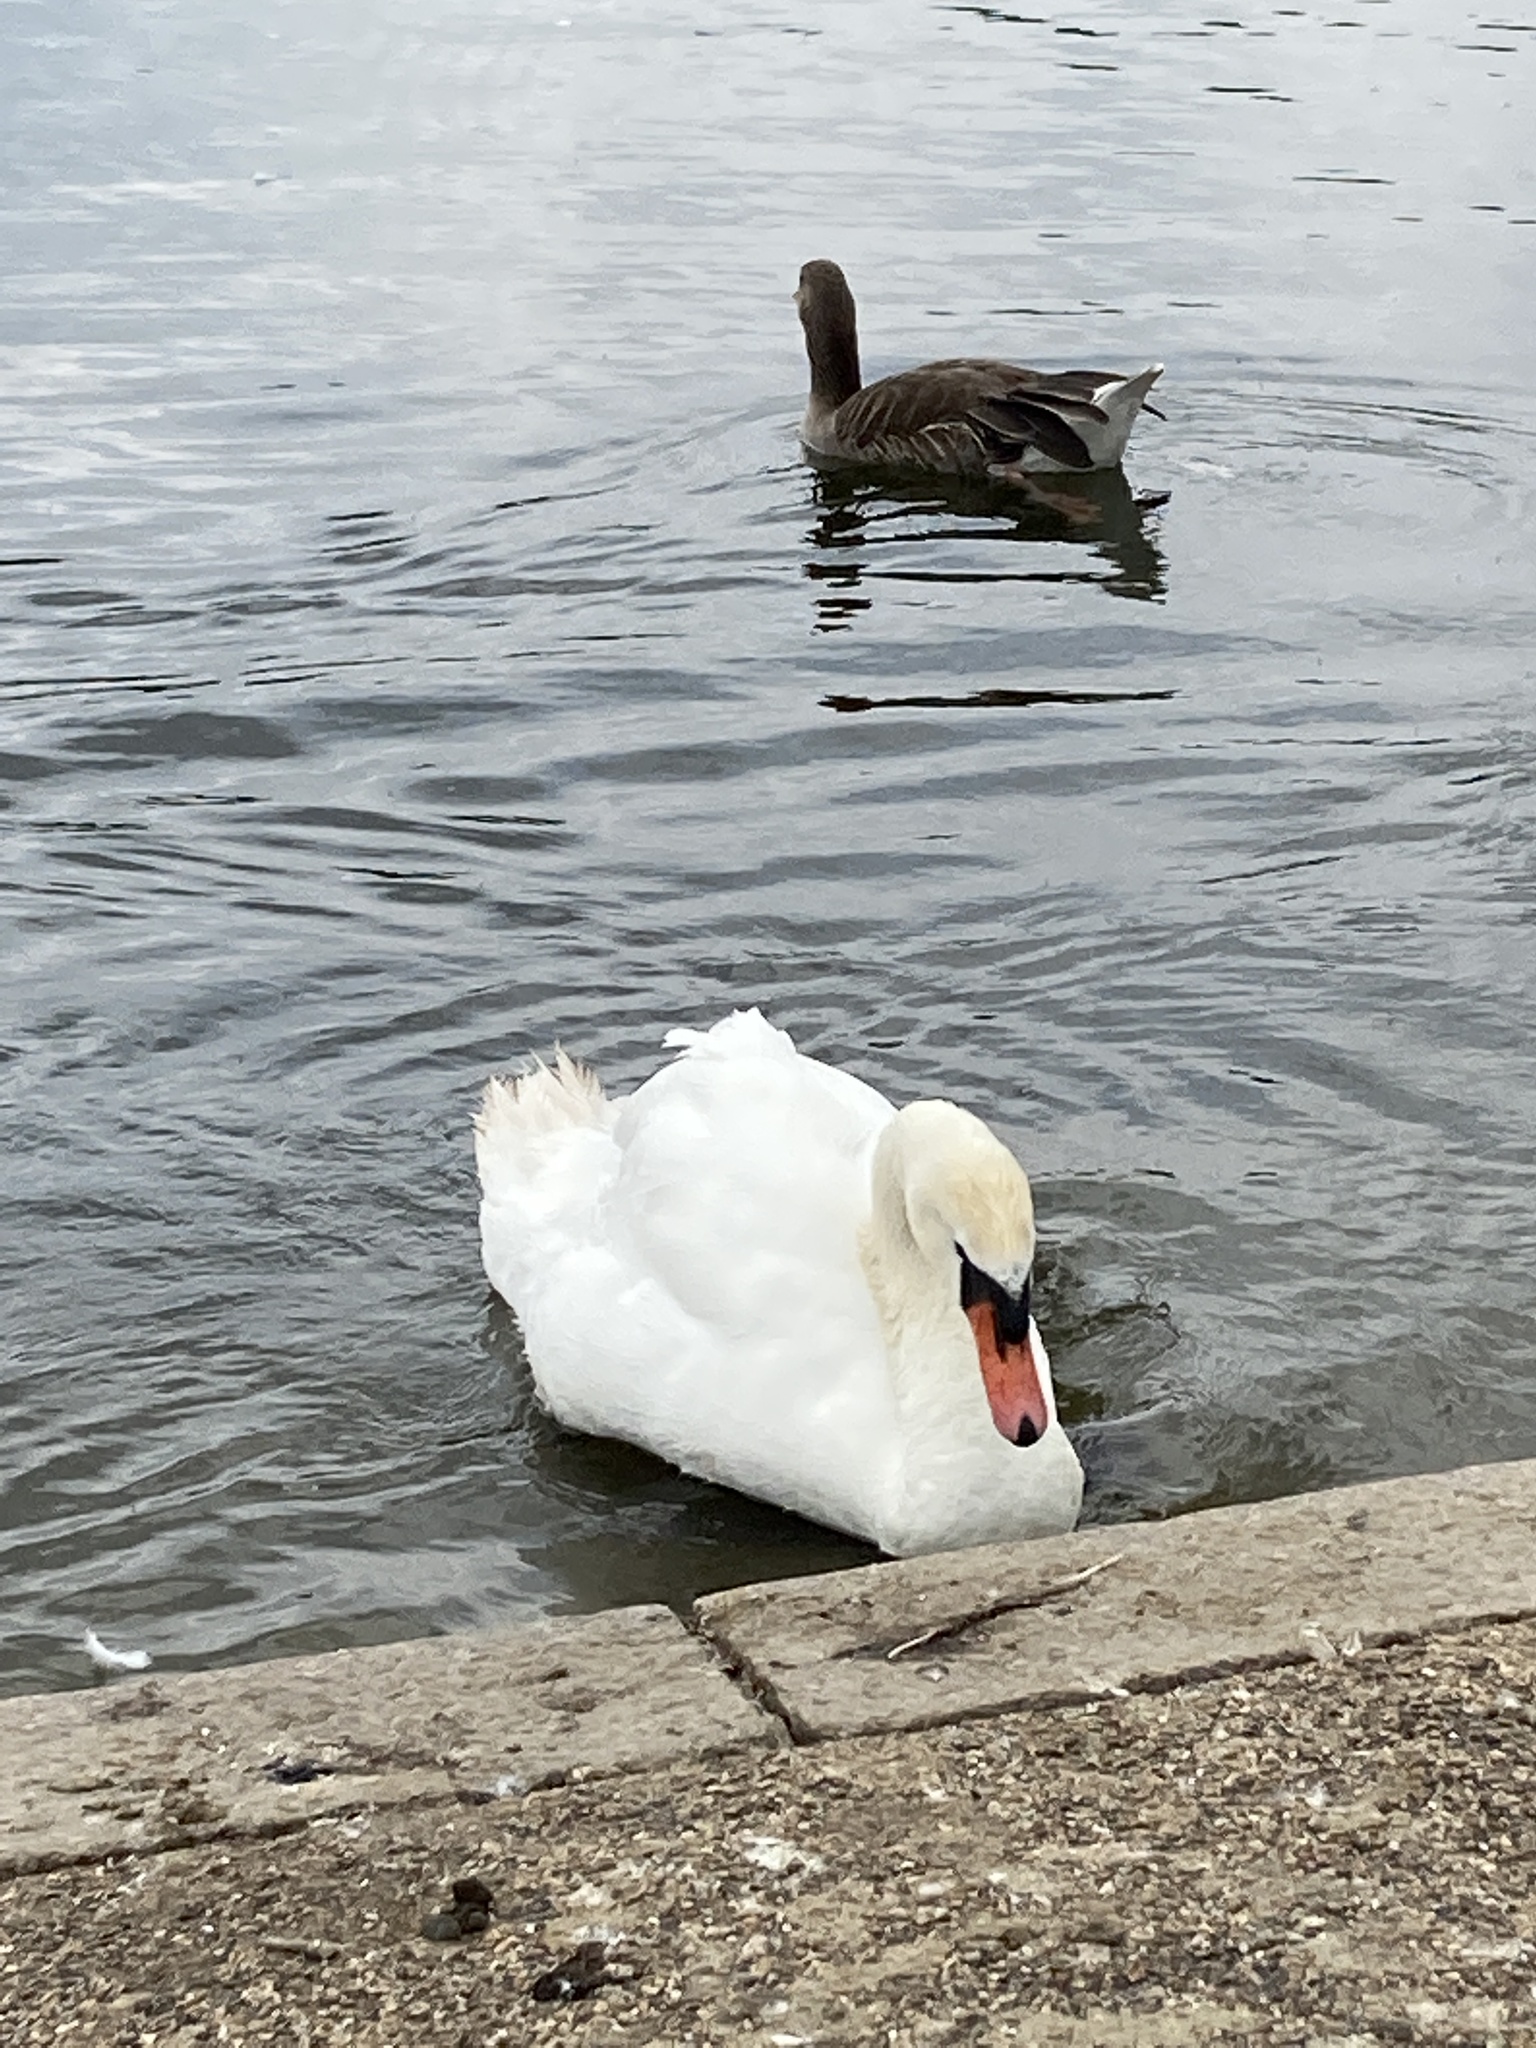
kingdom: Animalia
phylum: Chordata
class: Aves
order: Anseriformes
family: Anatidae
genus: Cygnus
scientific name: Cygnus olor
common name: Mute swan
